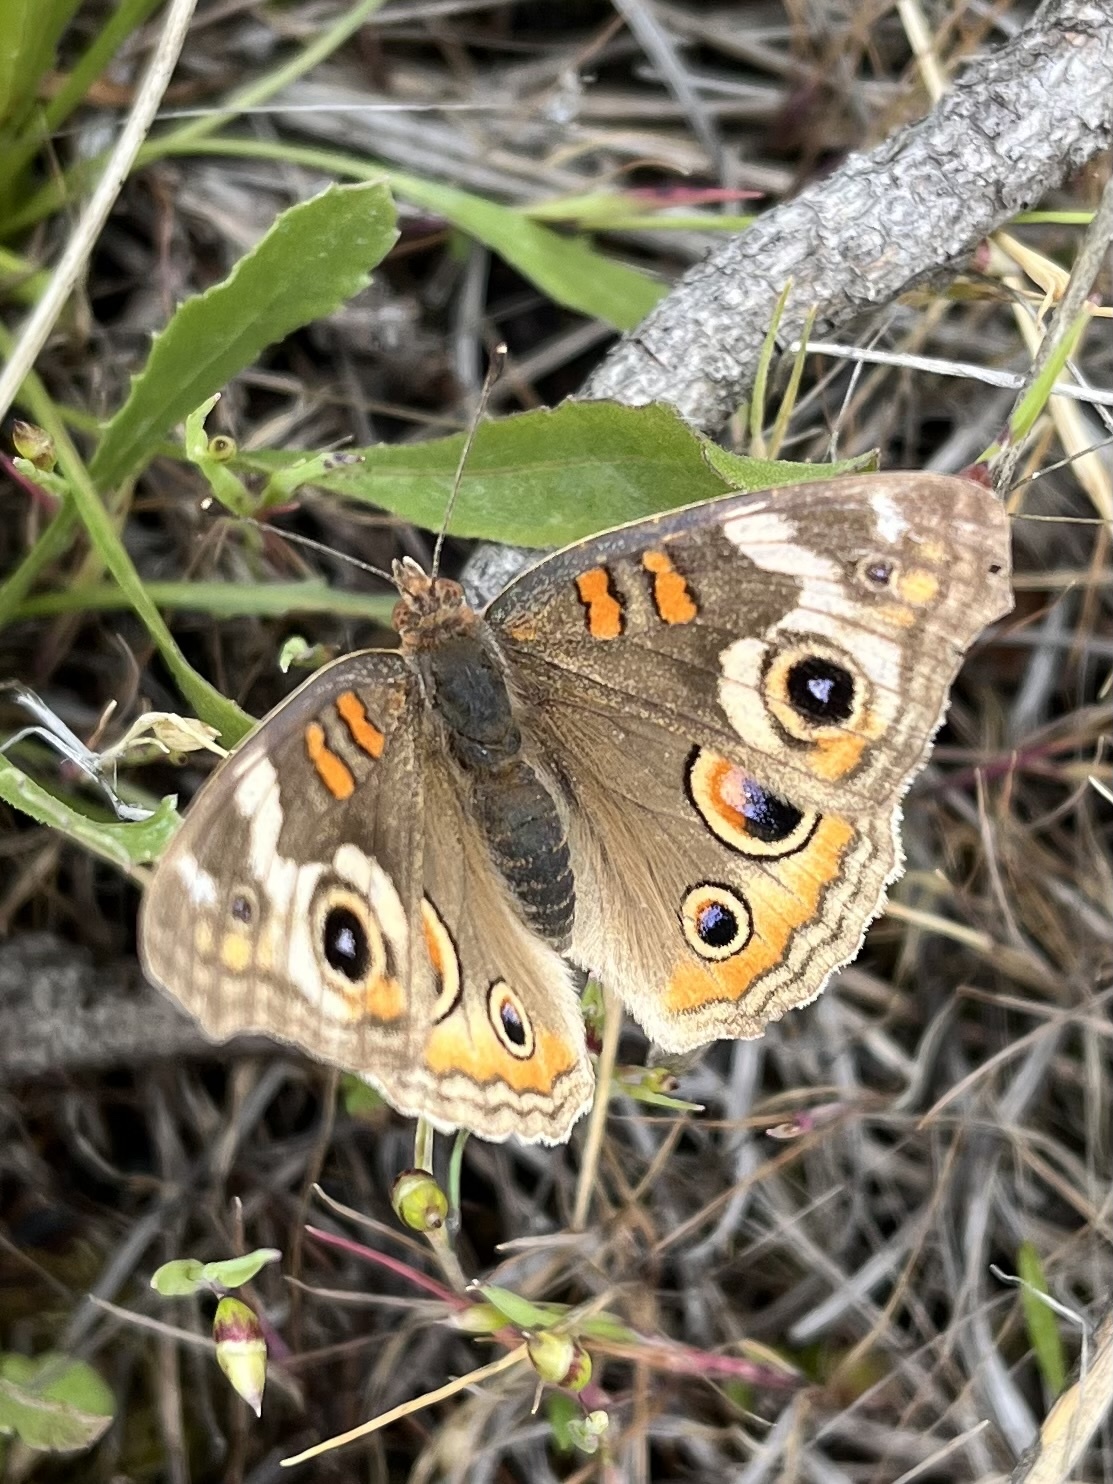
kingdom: Animalia
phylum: Arthropoda
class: Insecta
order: Lepidoptera
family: Nymphalidae
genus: Junonia
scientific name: Junonia grisea
